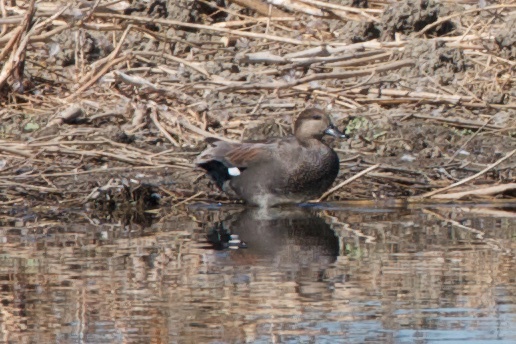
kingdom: Animalia
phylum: Chordata
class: Aves
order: Anseriformes
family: Anatidae
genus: Mareca
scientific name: Mareca strepera
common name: Gadwall
